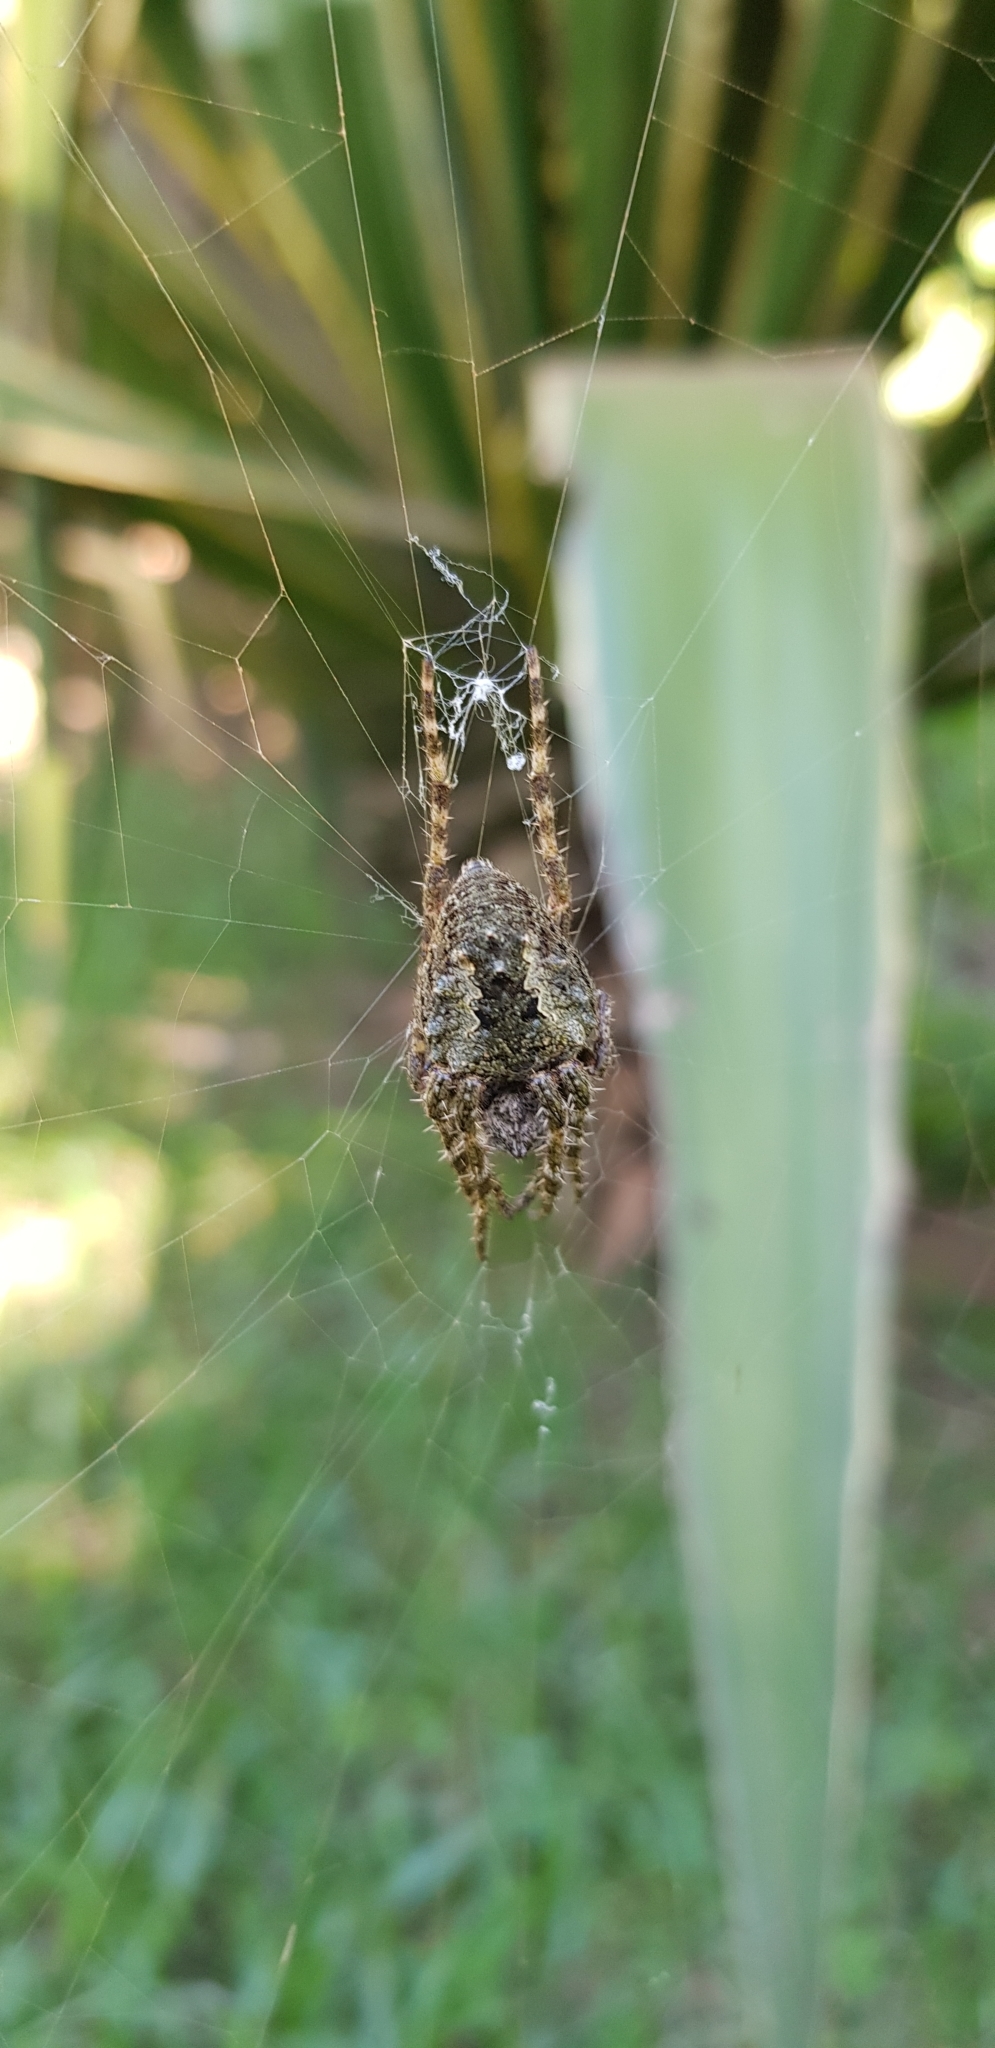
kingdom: Animalia
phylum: Arthropoda
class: Arachnida
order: Araneae
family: Araneidae
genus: Parawixia
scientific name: Parawixia audax
